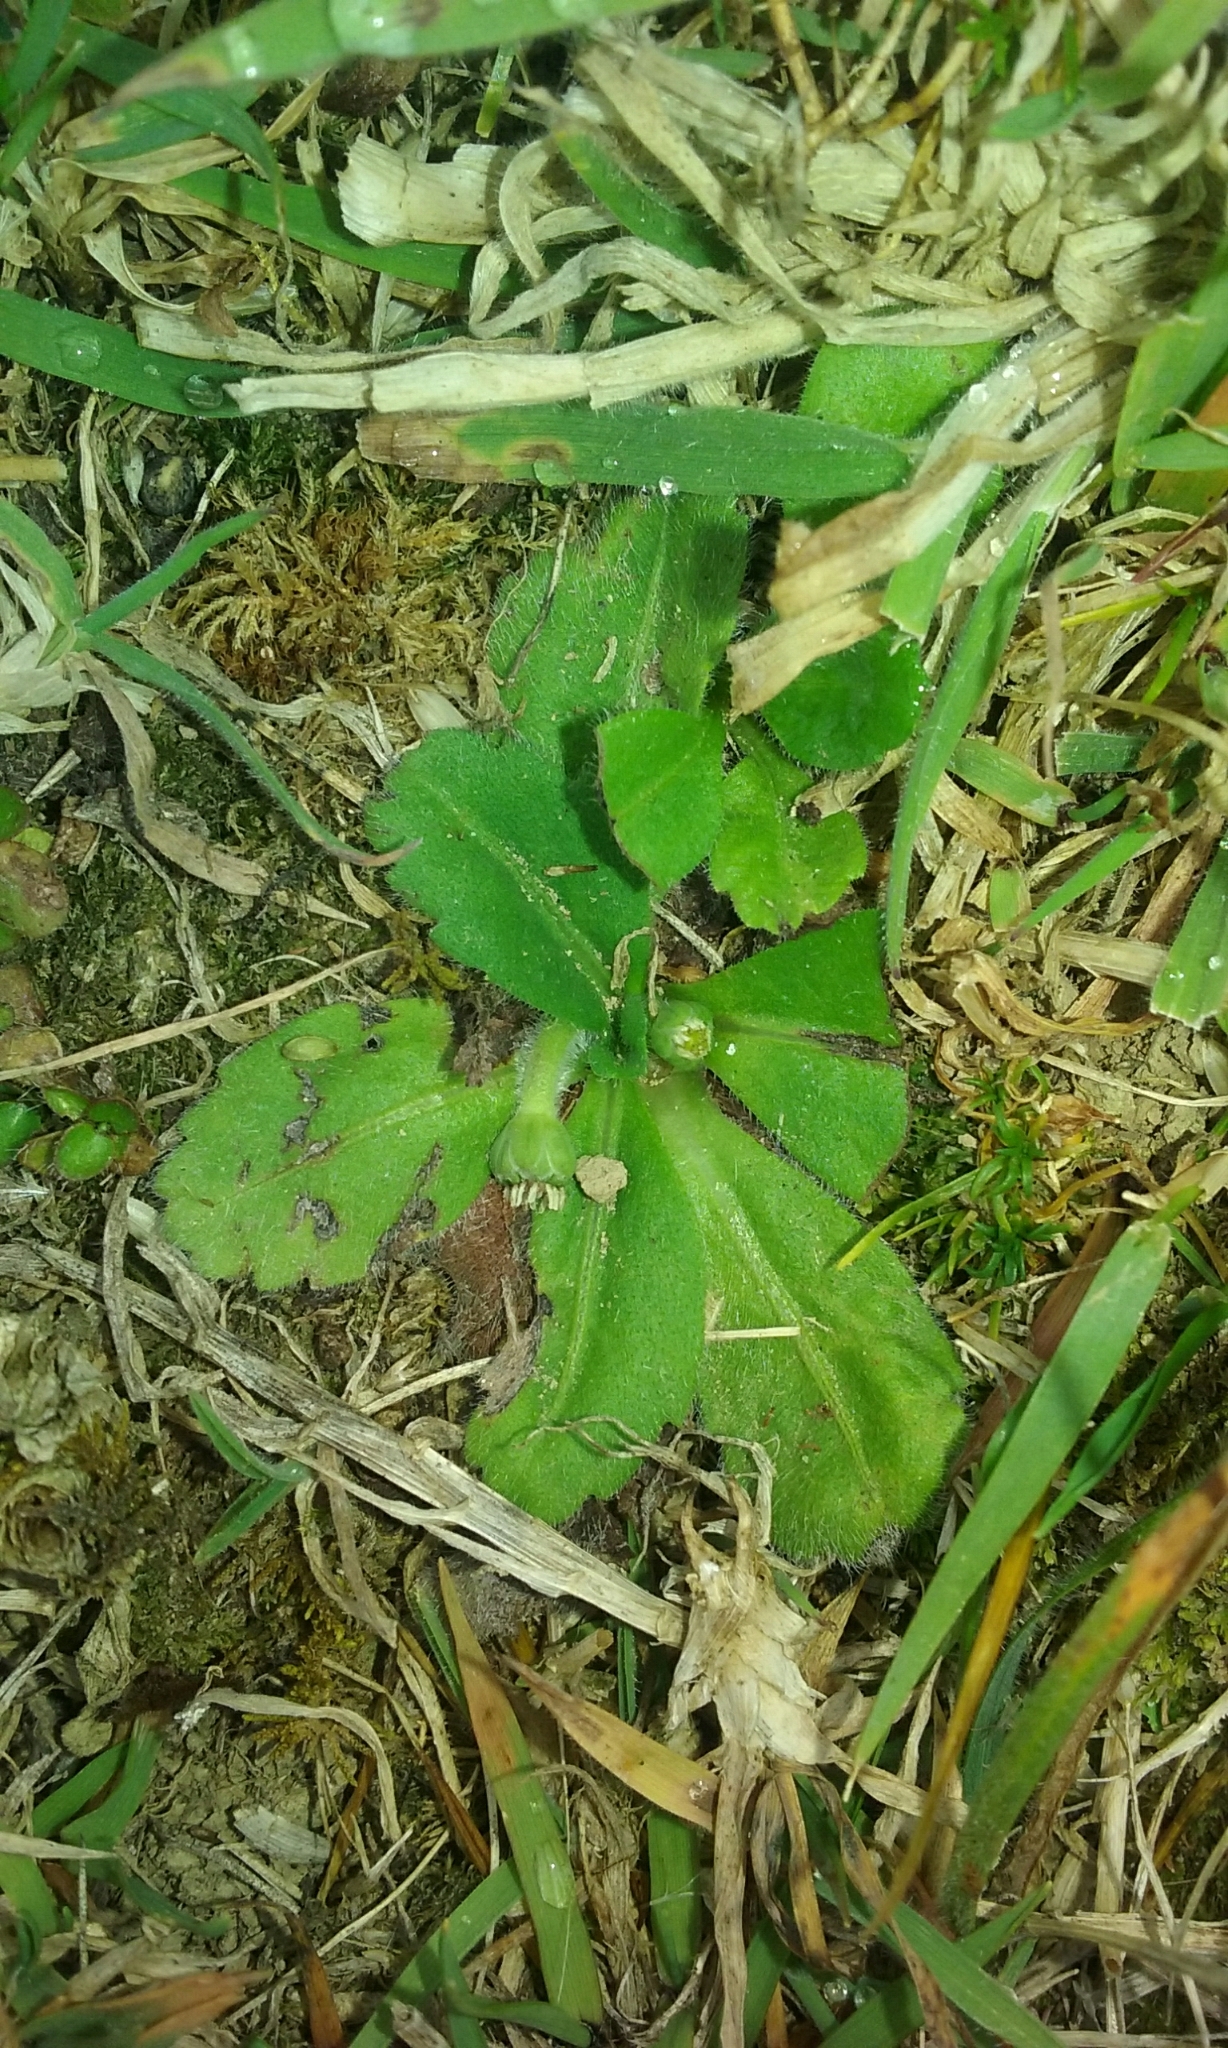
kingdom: Plantae
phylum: Tracheophyta
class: Magnoliopsida
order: Asterales
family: Asteraceae
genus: Solenogyne
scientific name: Solenogyne gunnii
